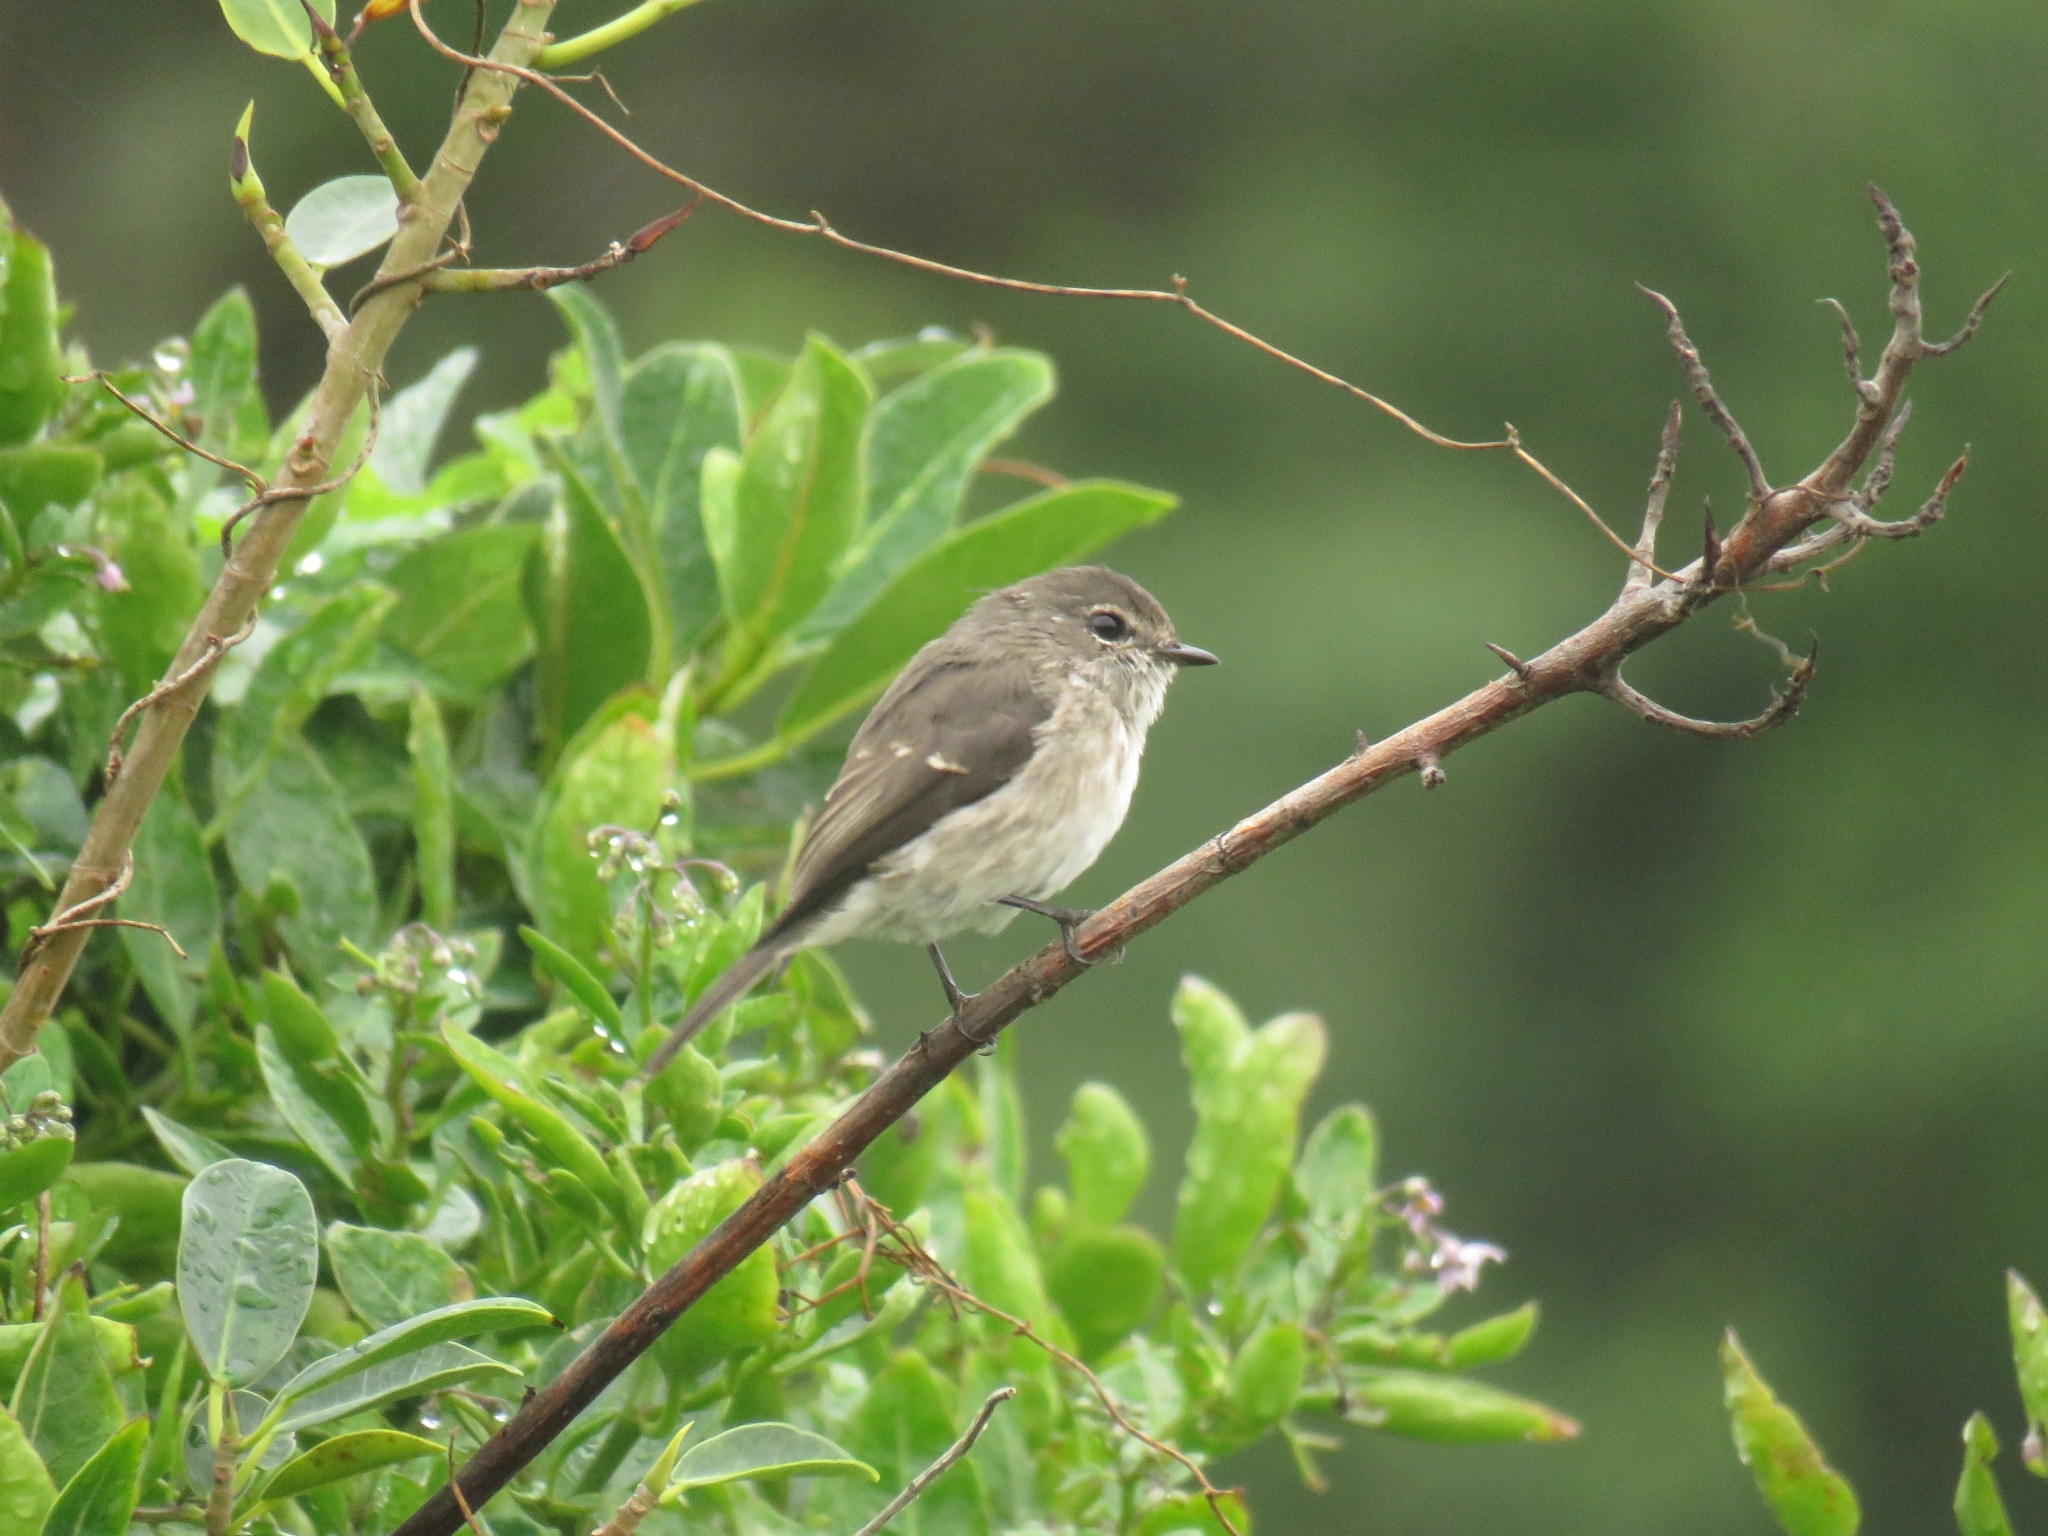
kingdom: Animalia
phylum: Chordata
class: Aves
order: Passeriformes
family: Muscicapidae
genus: Muscicapa
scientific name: Muscicapa adusta
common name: African dusky flycatcher
